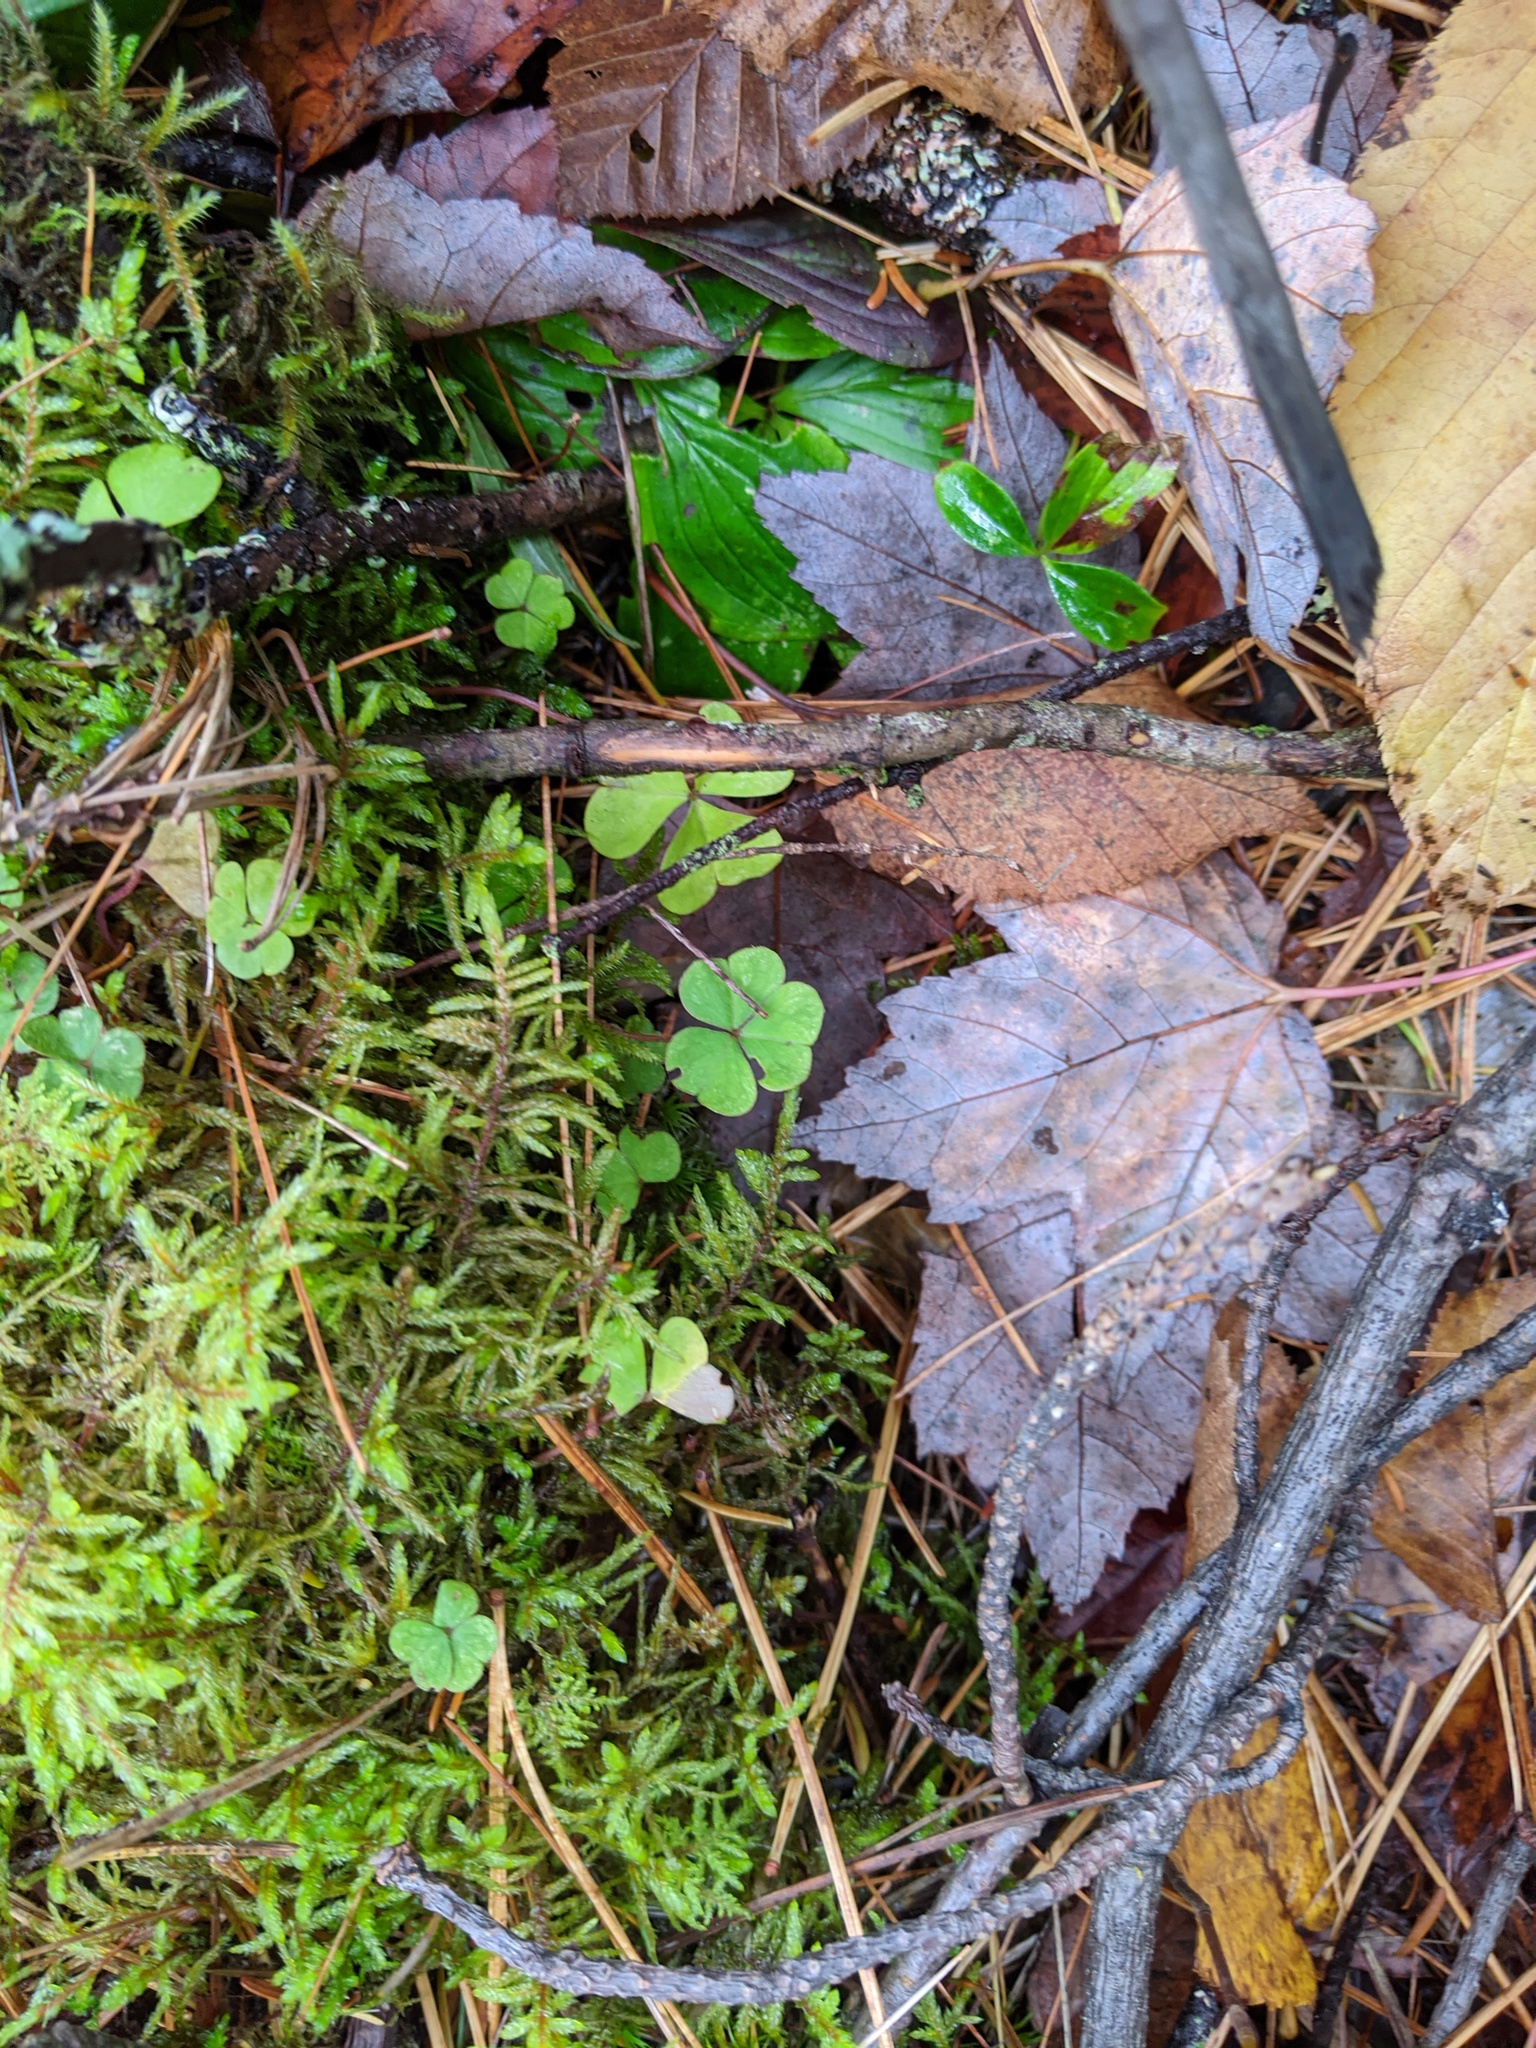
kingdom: Plantae
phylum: Tracheophyta
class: Magnoliopsida
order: Oxalidales
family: Oxalidaceae
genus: Oxalis
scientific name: Oxalis montana
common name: American wood-sorrel
